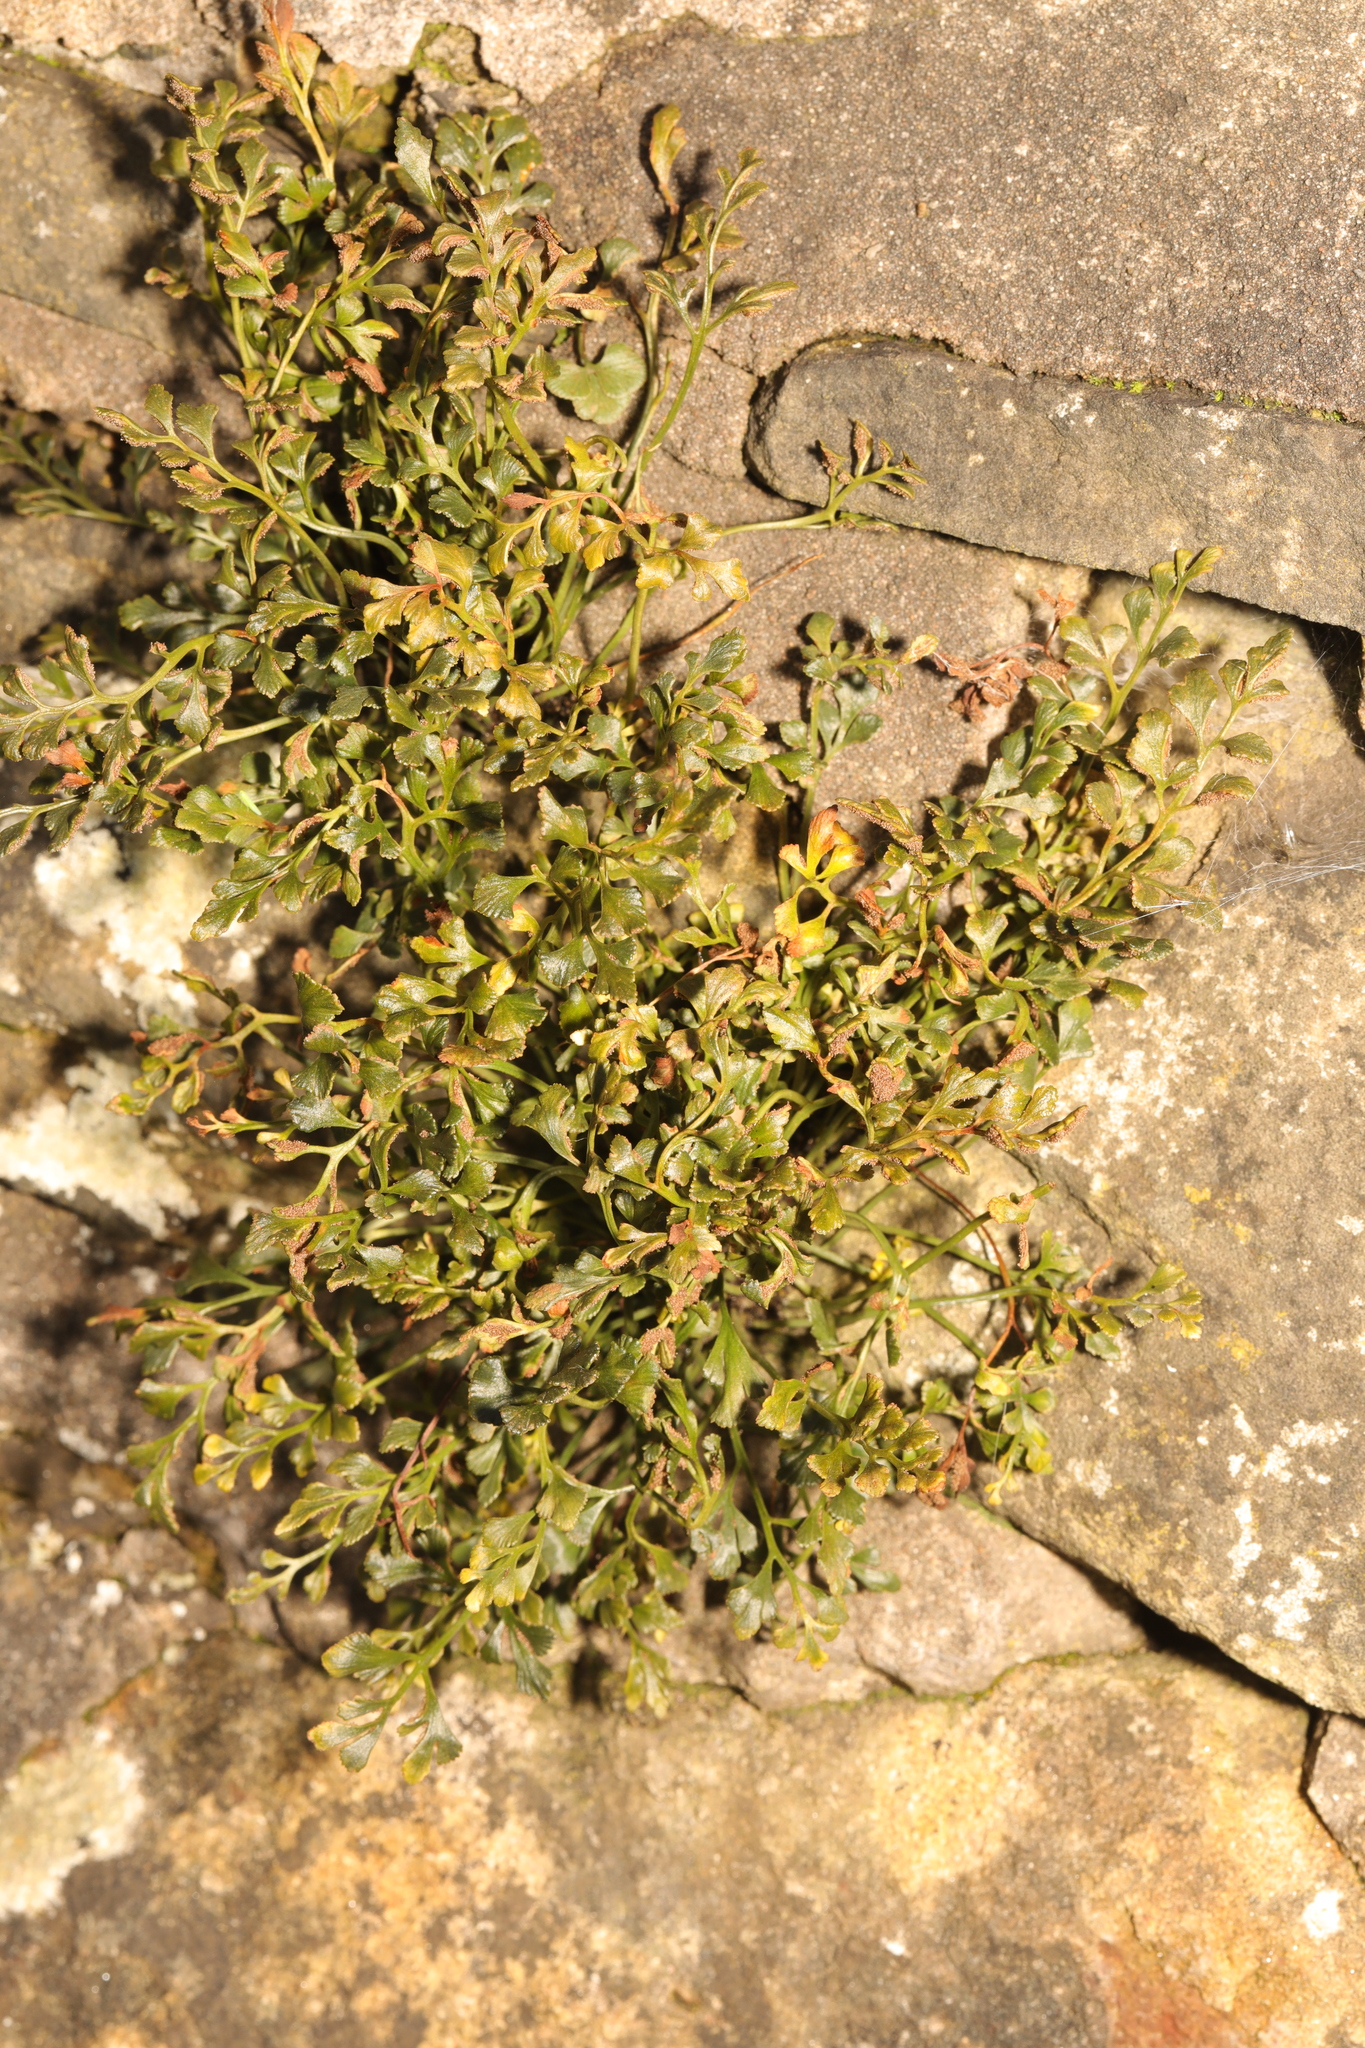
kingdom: Plantae
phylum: Tracheophyta
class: Polypodiopsida
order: Polypodiales
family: Aspleniaceae
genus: Asplenium
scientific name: Asplenium ruta-muraria
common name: Wall-rue
